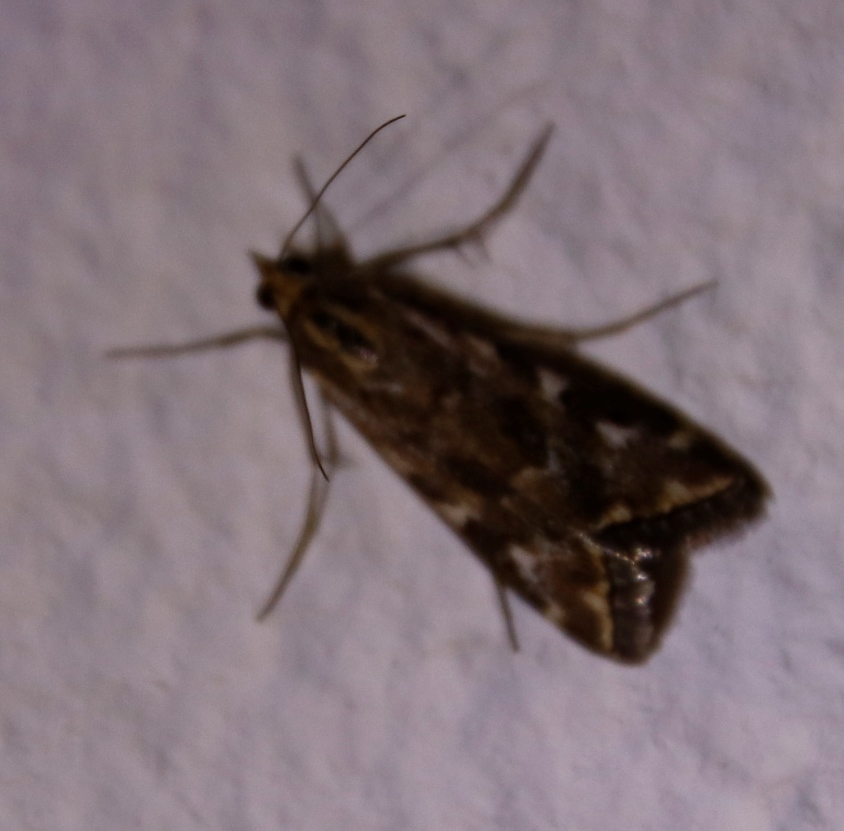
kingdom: Animalia
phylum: Arthropoda
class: Insecta
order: Lepidoptera
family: Crambidae
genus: Loxostege
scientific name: Loxostege frustalis
